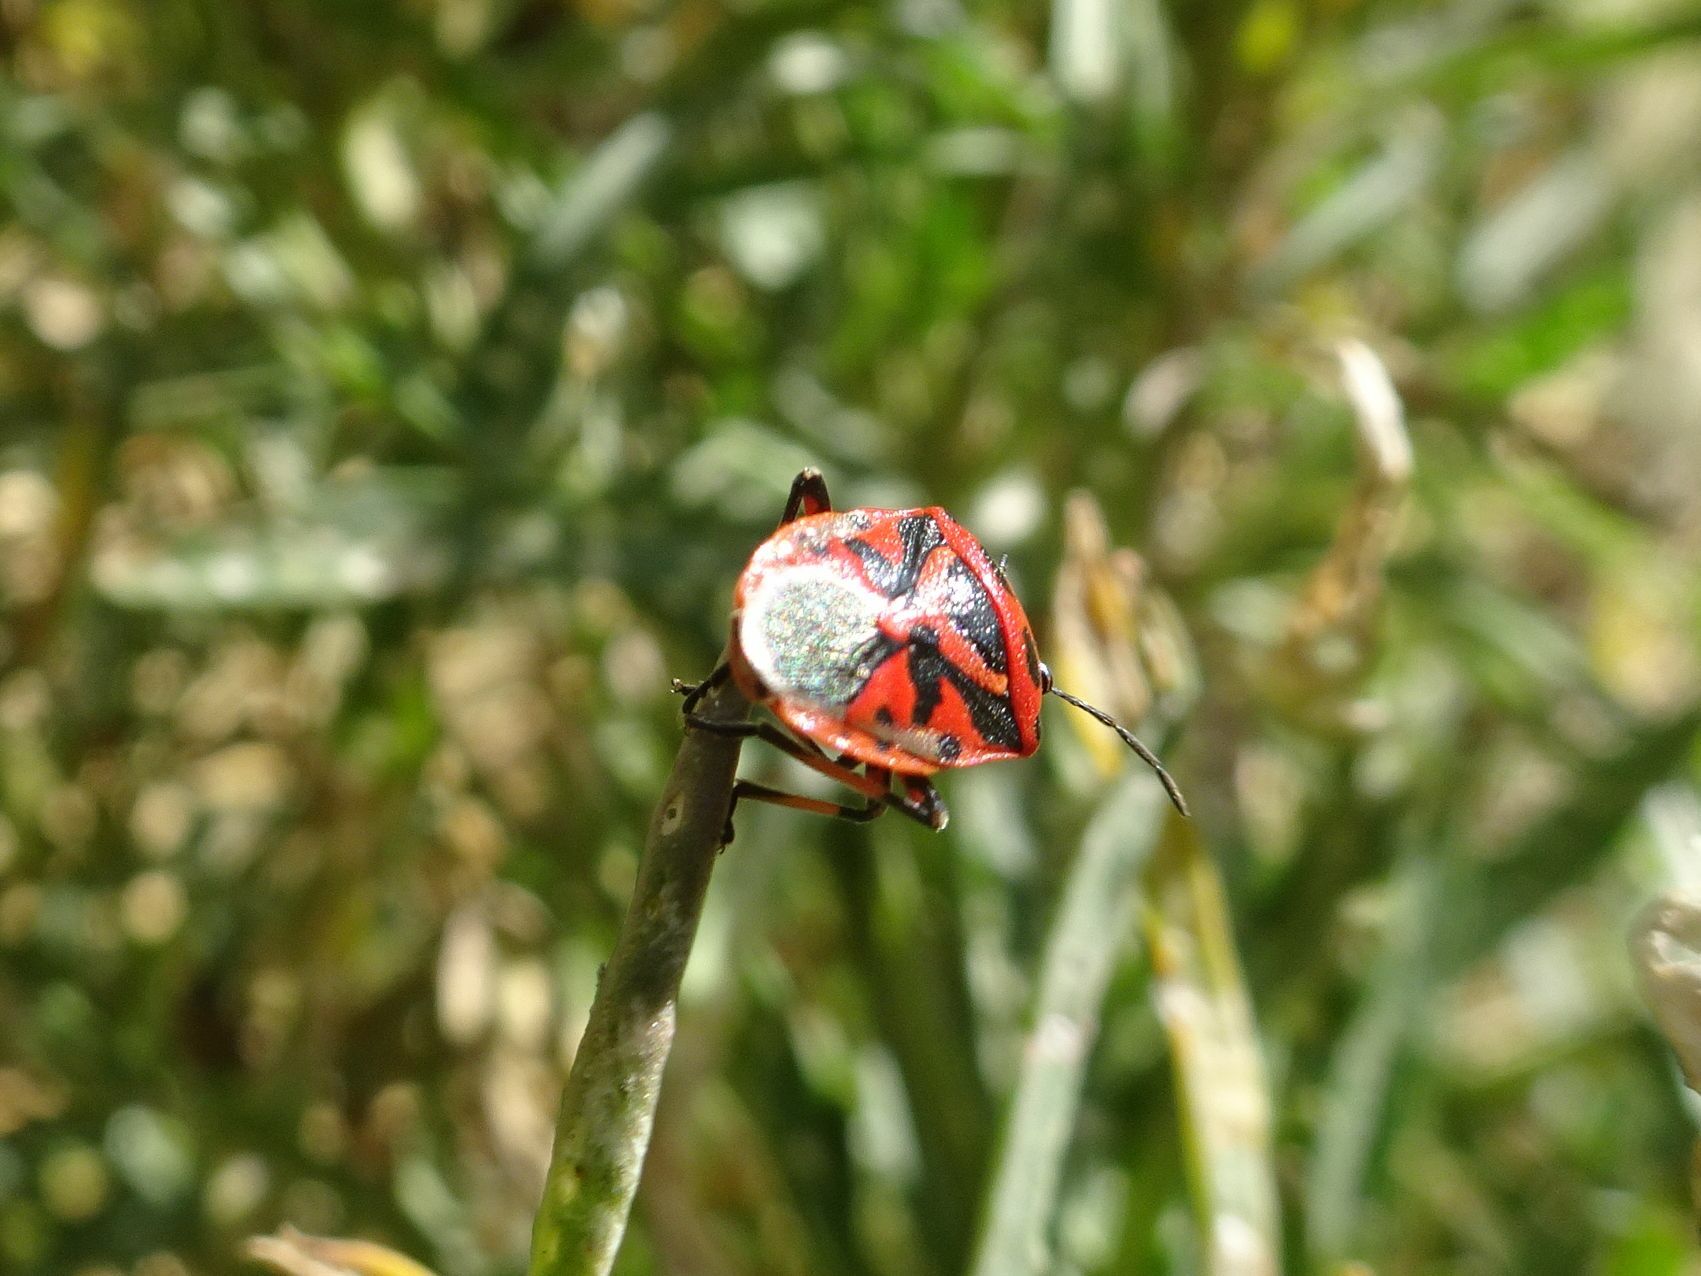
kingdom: Animalia
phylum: Arthropoda
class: Insecta
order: Hemiptera
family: Pentatomidae
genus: Eurydema
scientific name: Eurydema ornata
